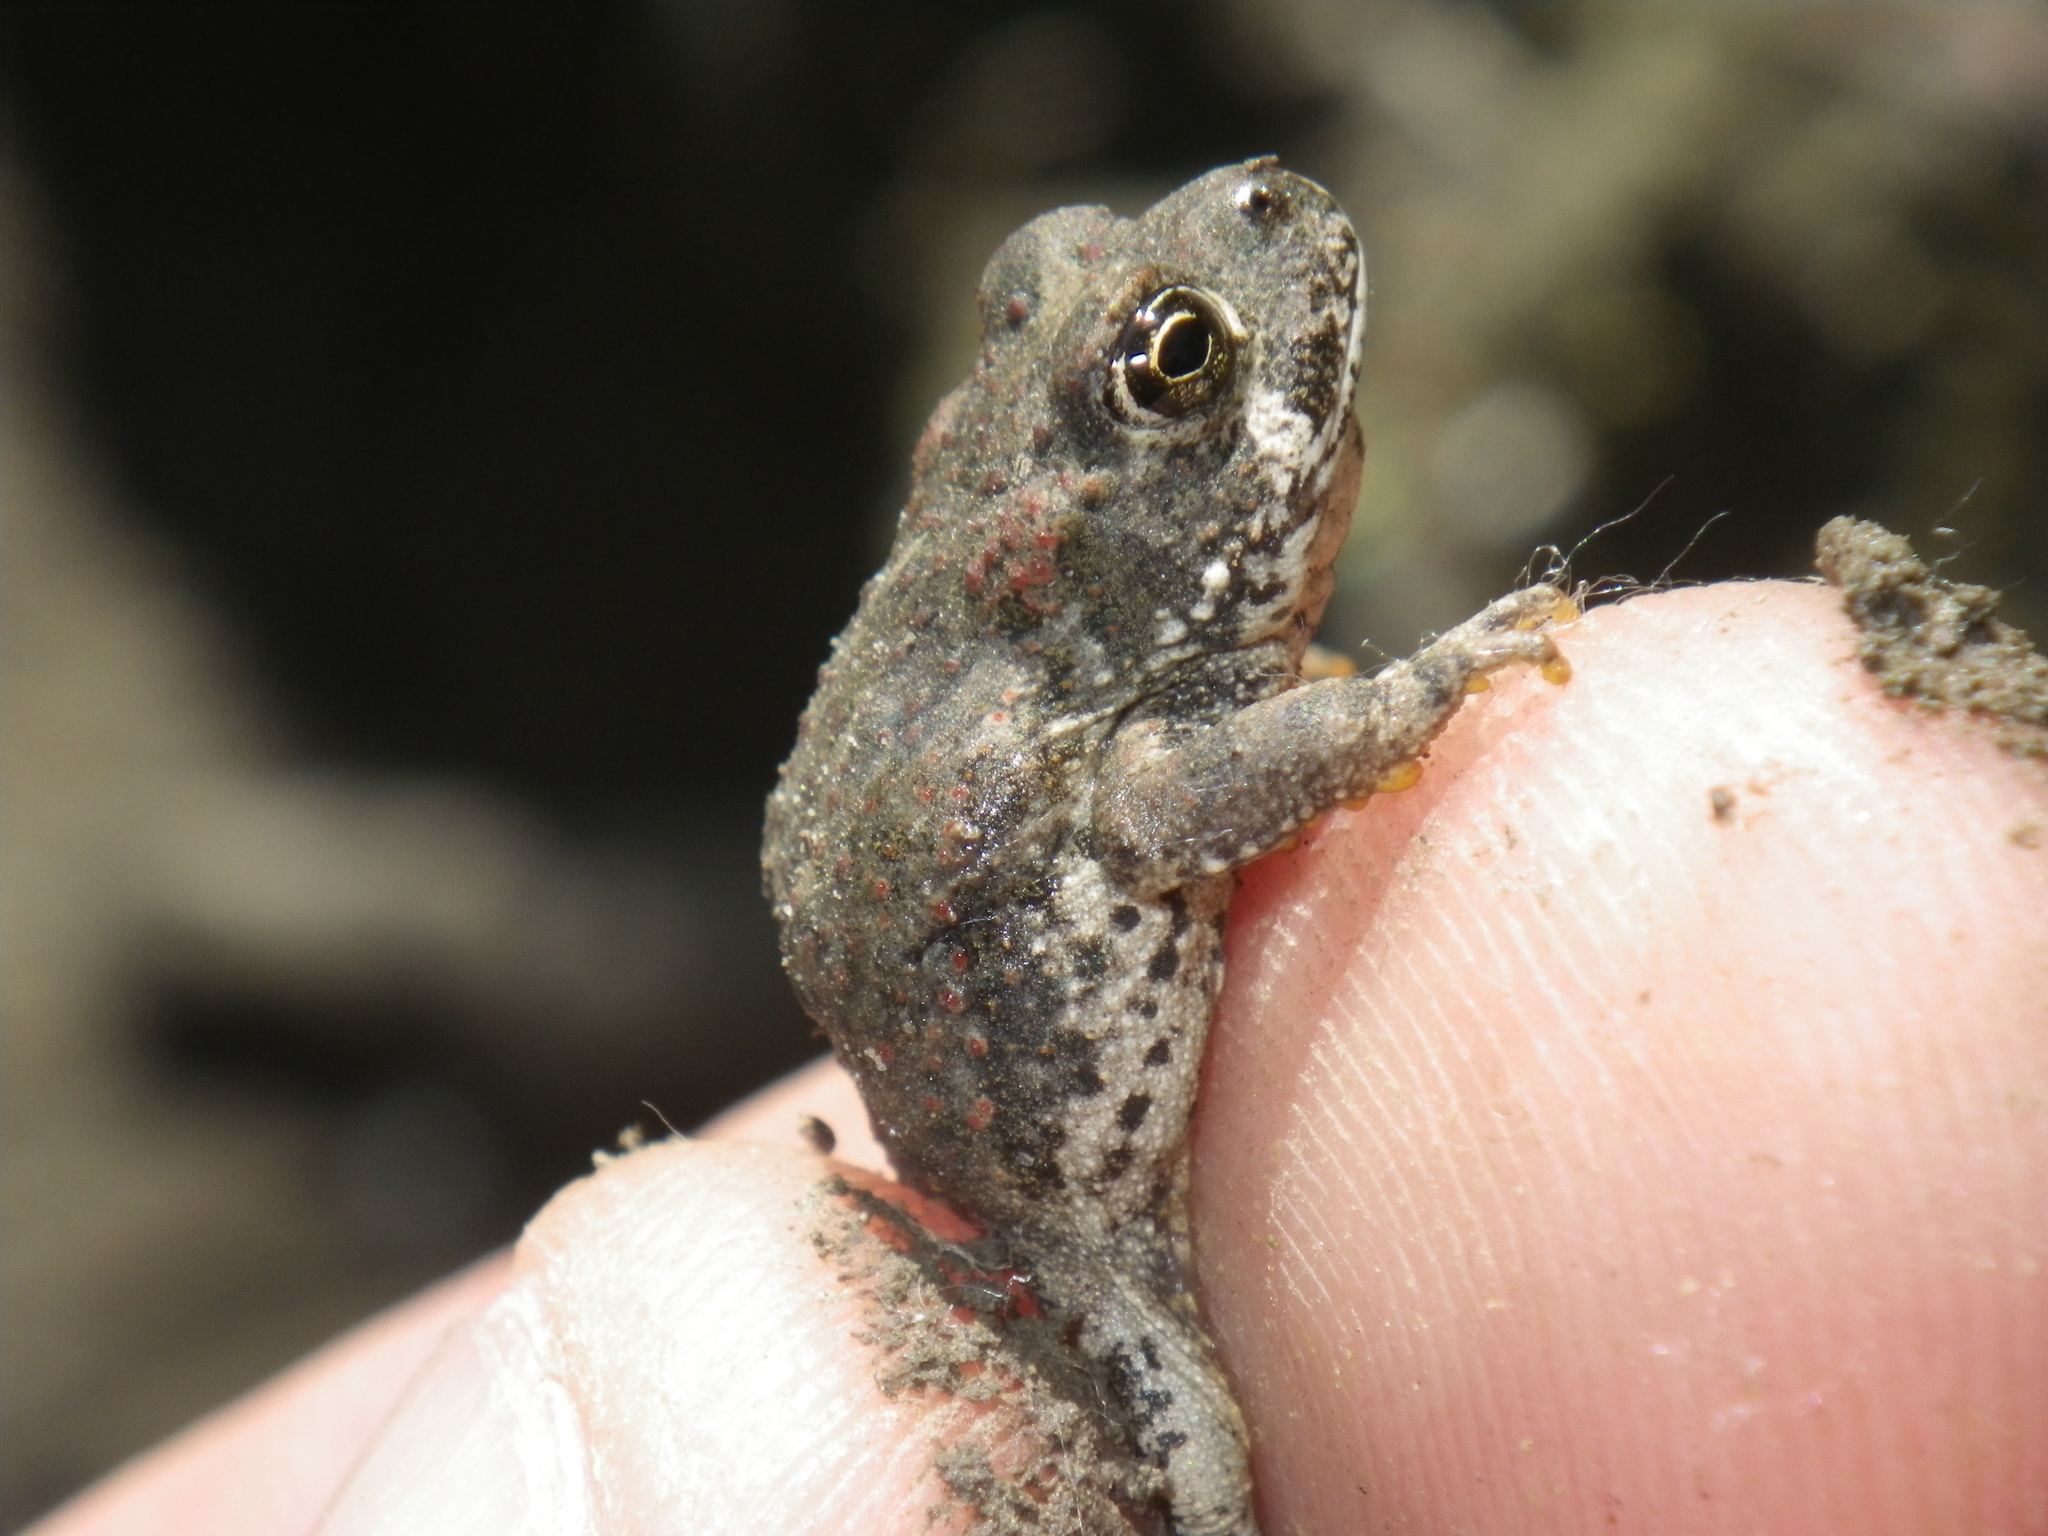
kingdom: Animalia
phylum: Chordata
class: Amphibia
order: Anura
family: Bufonidae
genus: Anaxyrus
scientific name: Anaxyrus boreas
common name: Western toad
